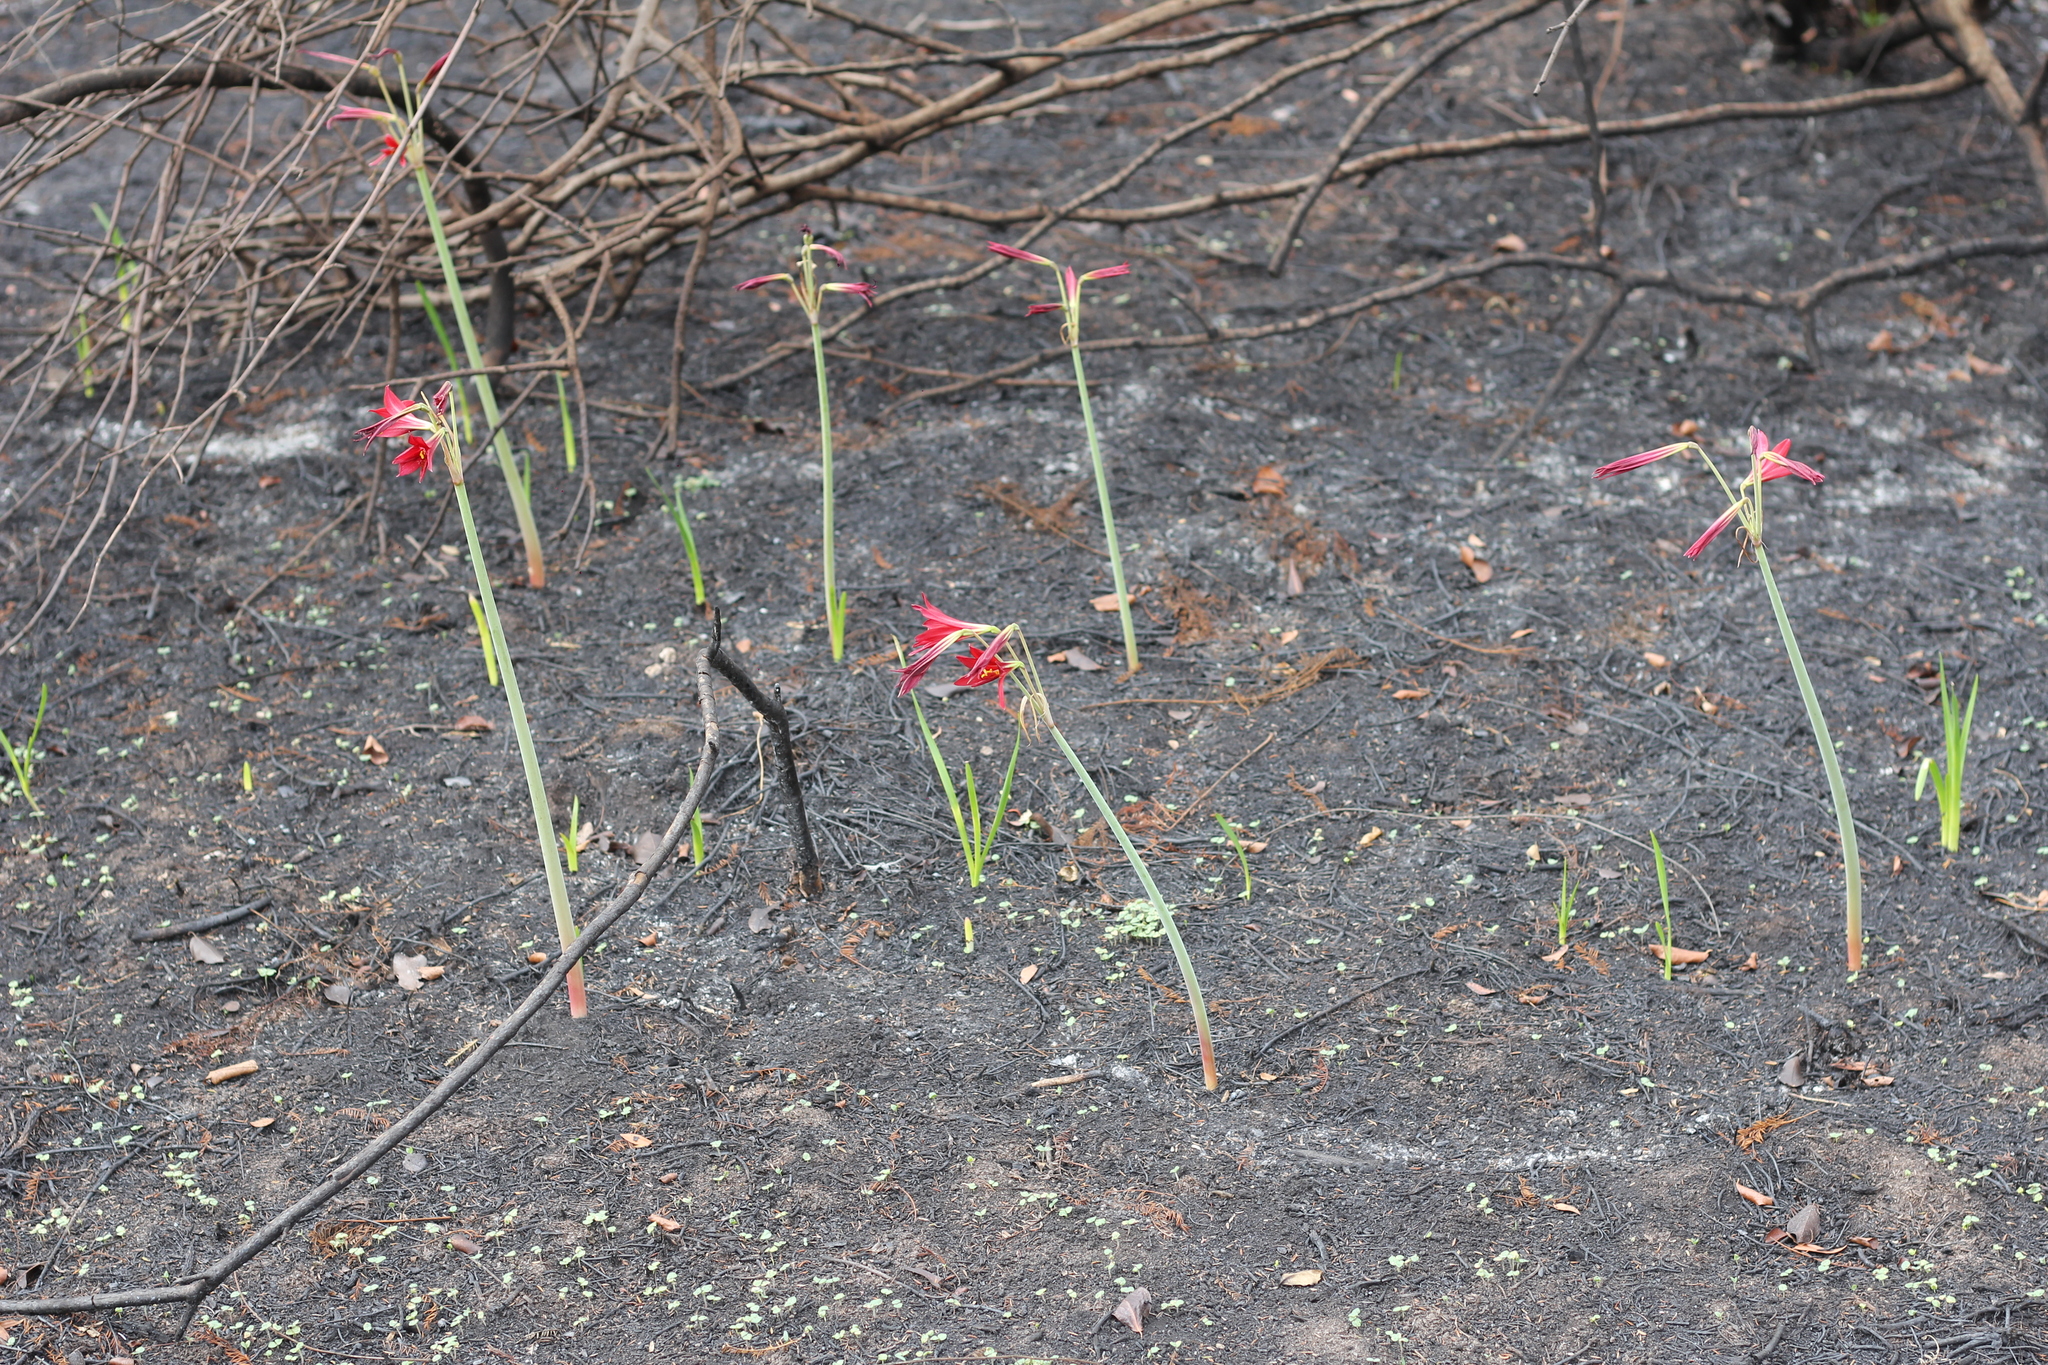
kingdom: Plantae
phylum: Tracheophyta
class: Liliopsida
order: Asparagales
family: Amaryllidaceae
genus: Zephyranthes
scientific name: Zephyranthes bifida
